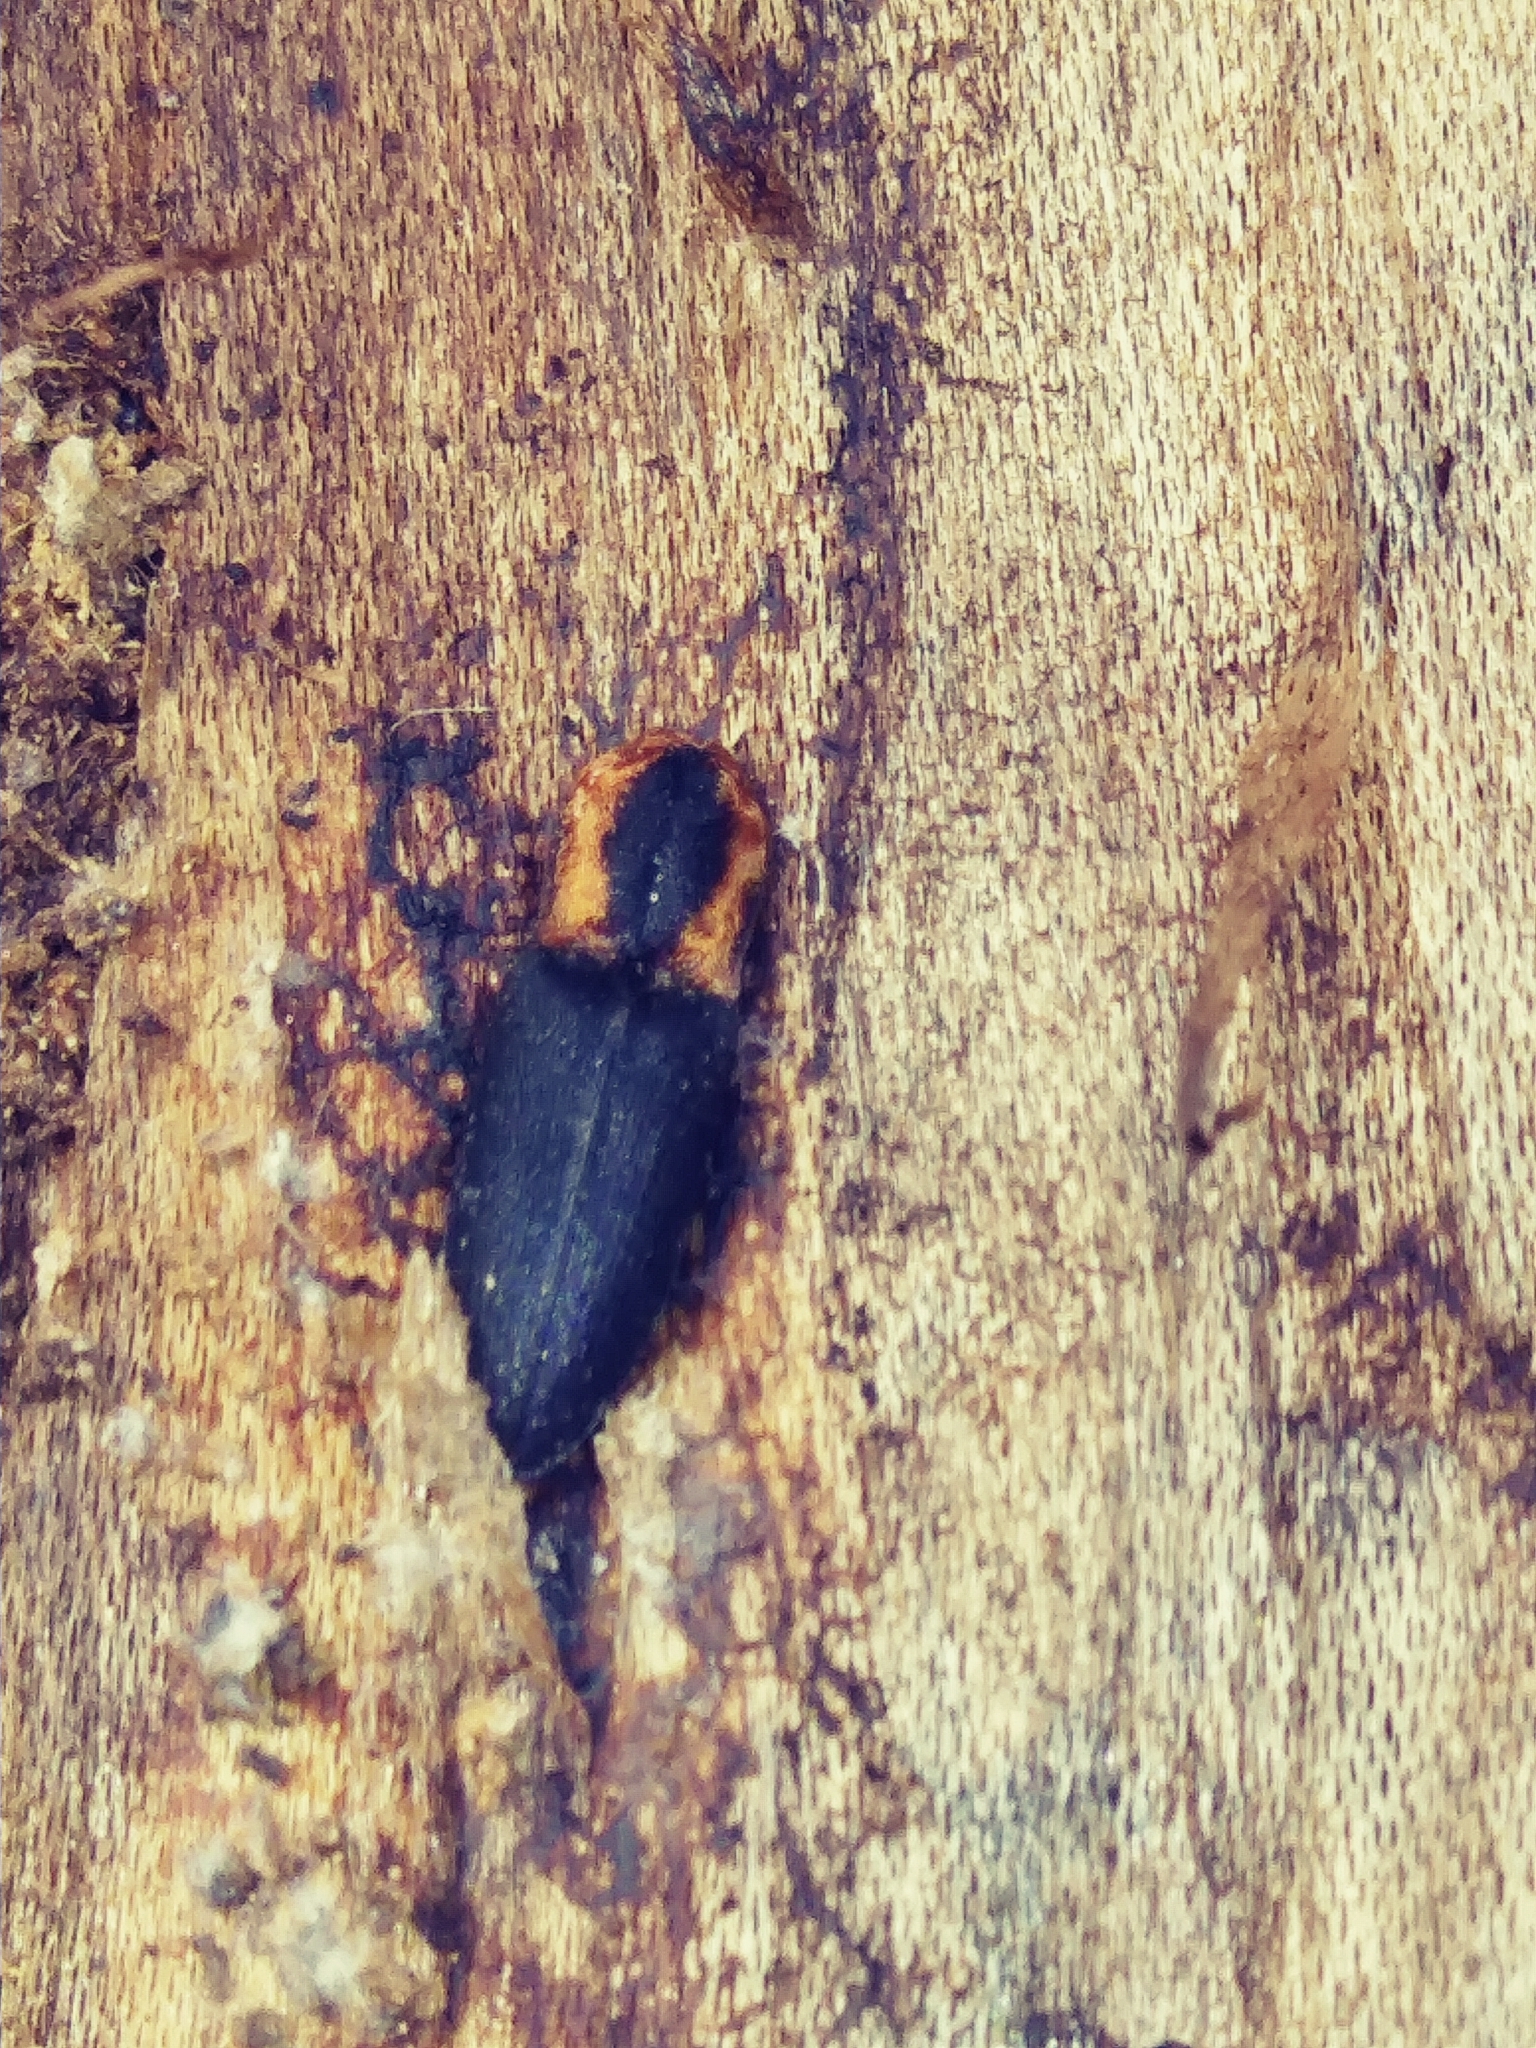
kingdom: Animalia
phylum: Arthropoda
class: Insecta
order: Coleoptera
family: Elateridae
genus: Lacon
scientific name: Lacon discoideus
